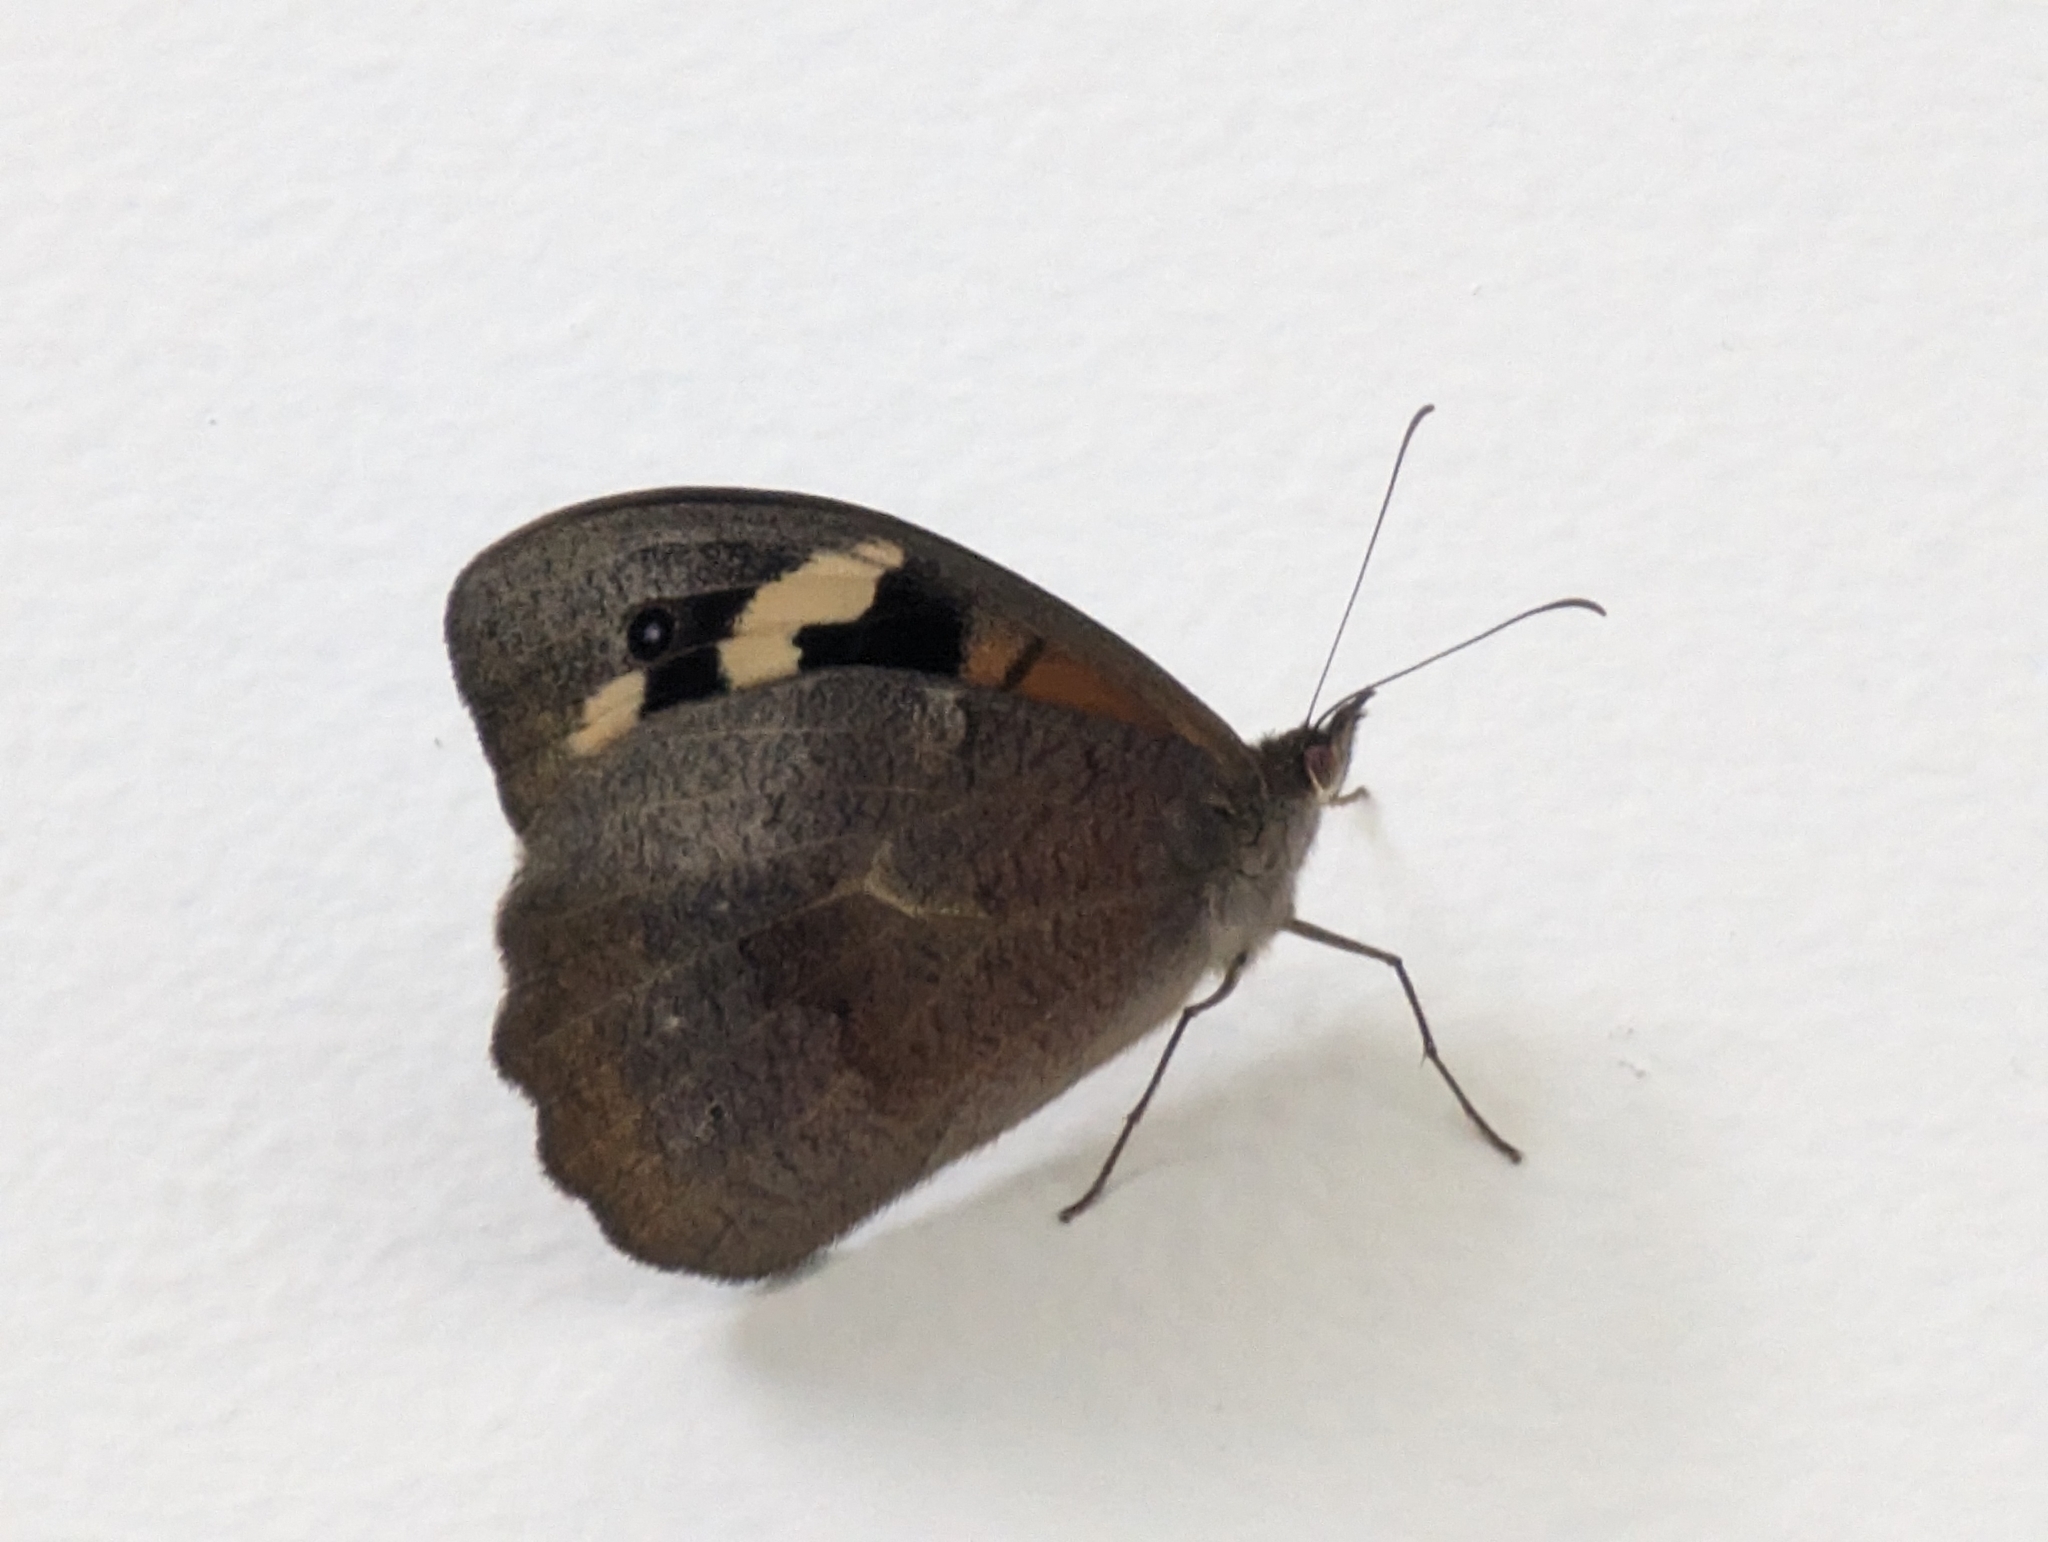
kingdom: Animalia
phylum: Arthropoda
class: Insecta
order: Lepidoptera
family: Nymphalidae
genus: Heteronympha
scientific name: Heteronympha merope
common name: Common brown
